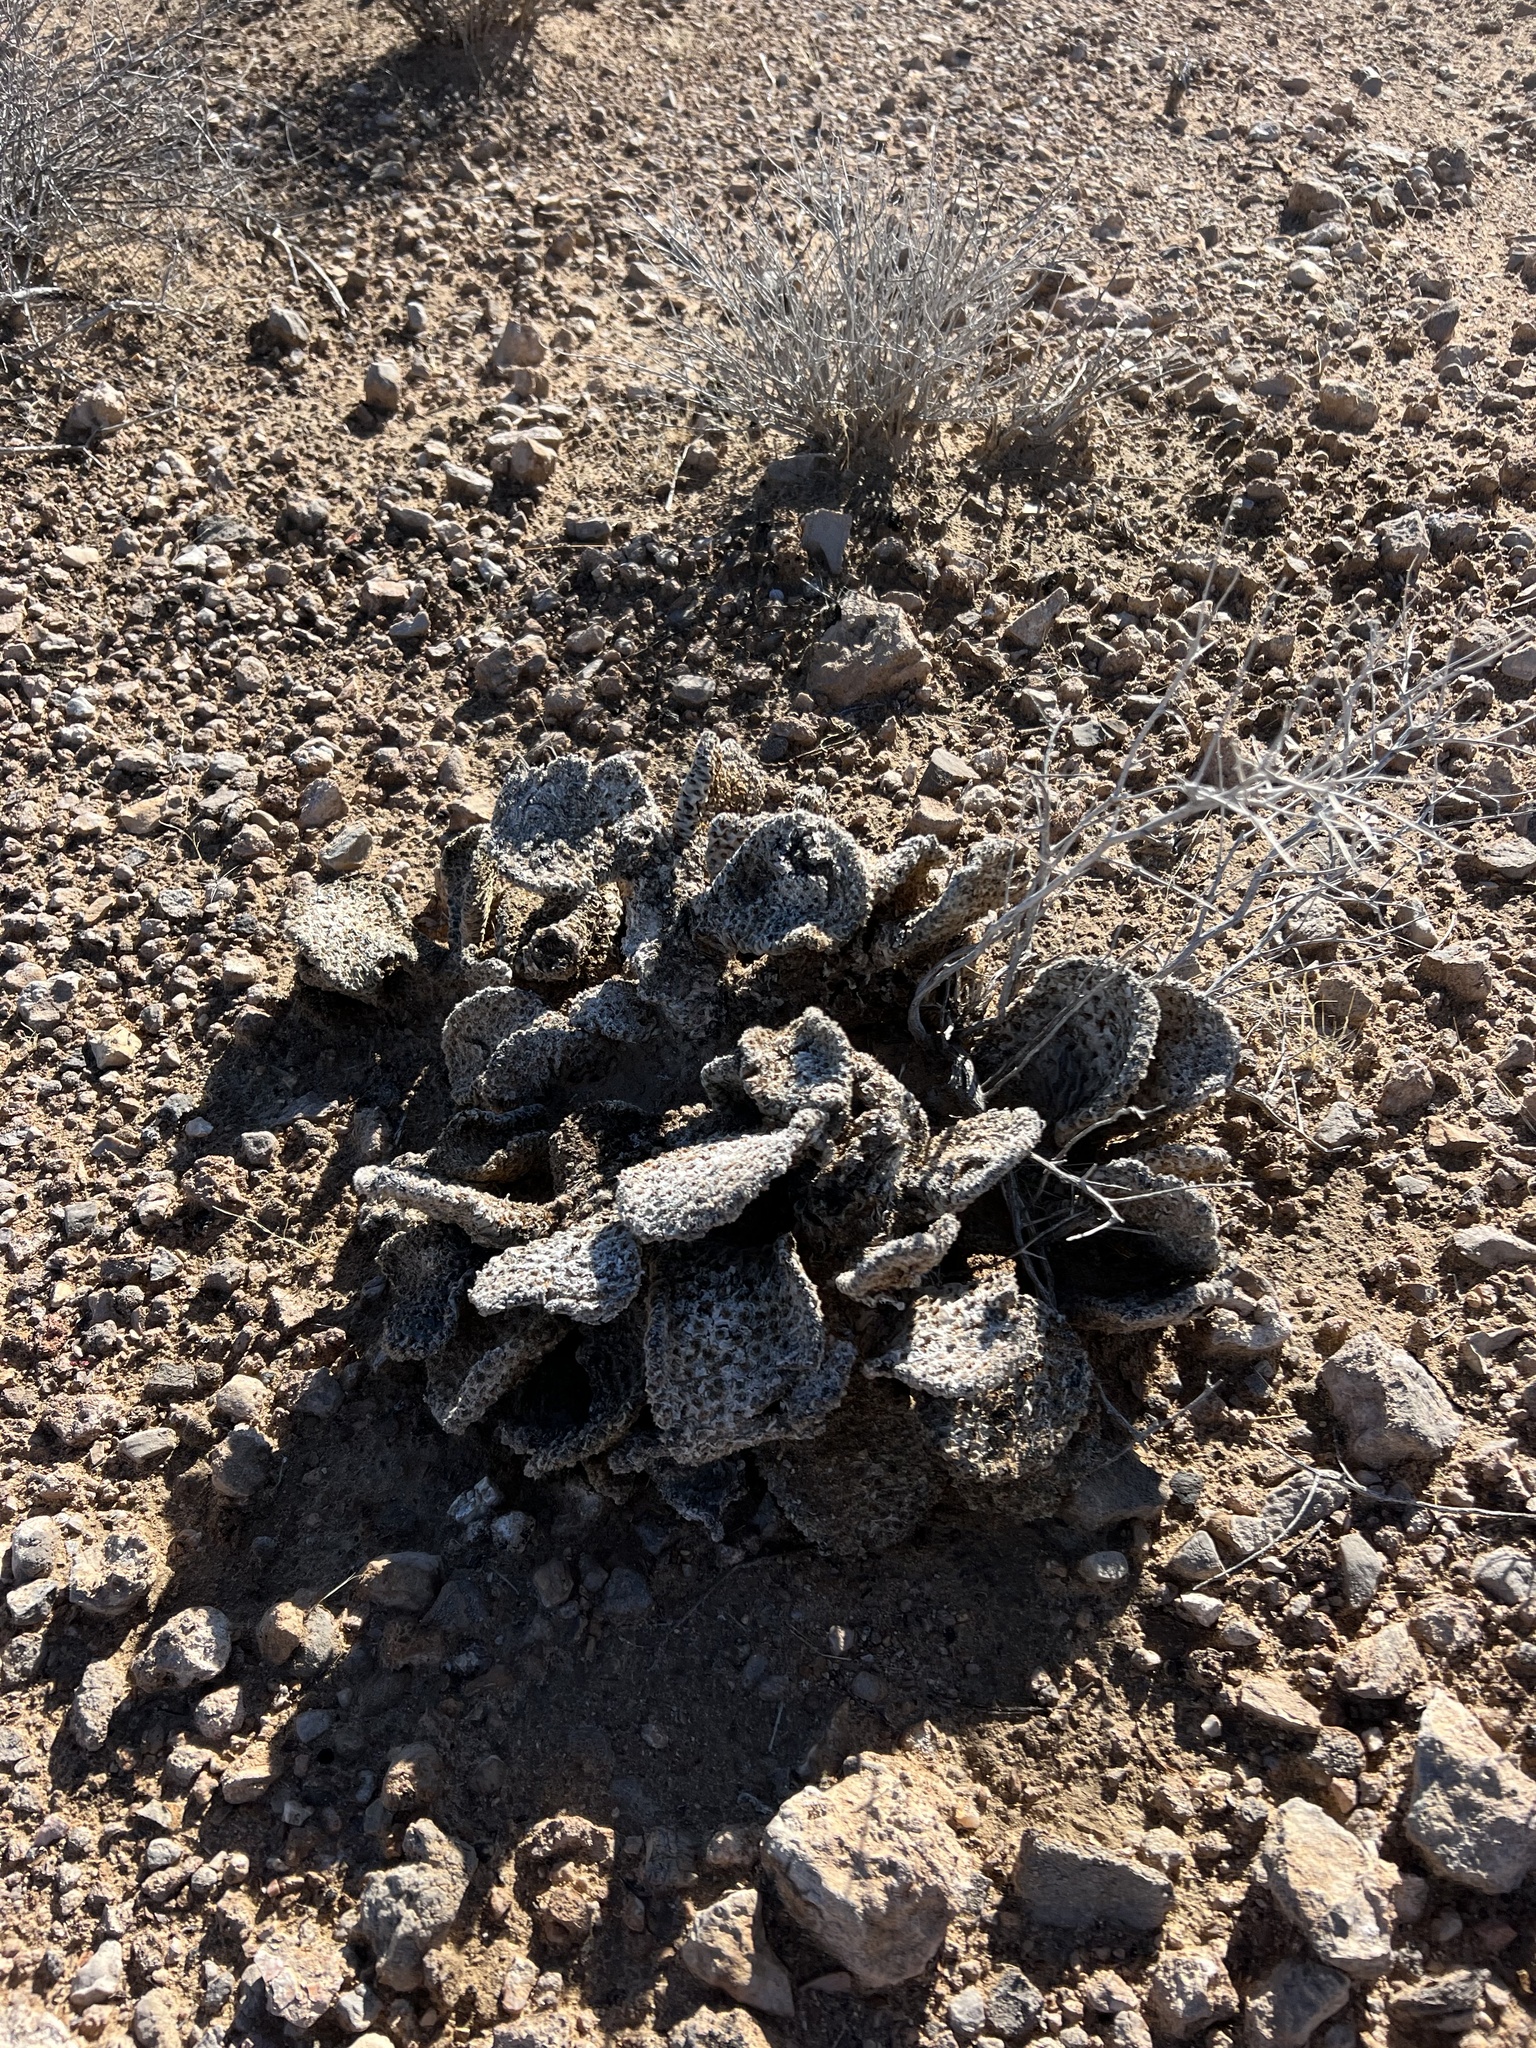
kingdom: Plantae
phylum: Tracheophyta
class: Magnoliopsida
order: Caryophyllales
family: Cactaceae
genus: Opuntia
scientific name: Opuntia basilaris
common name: Beavertail prickly-pear
